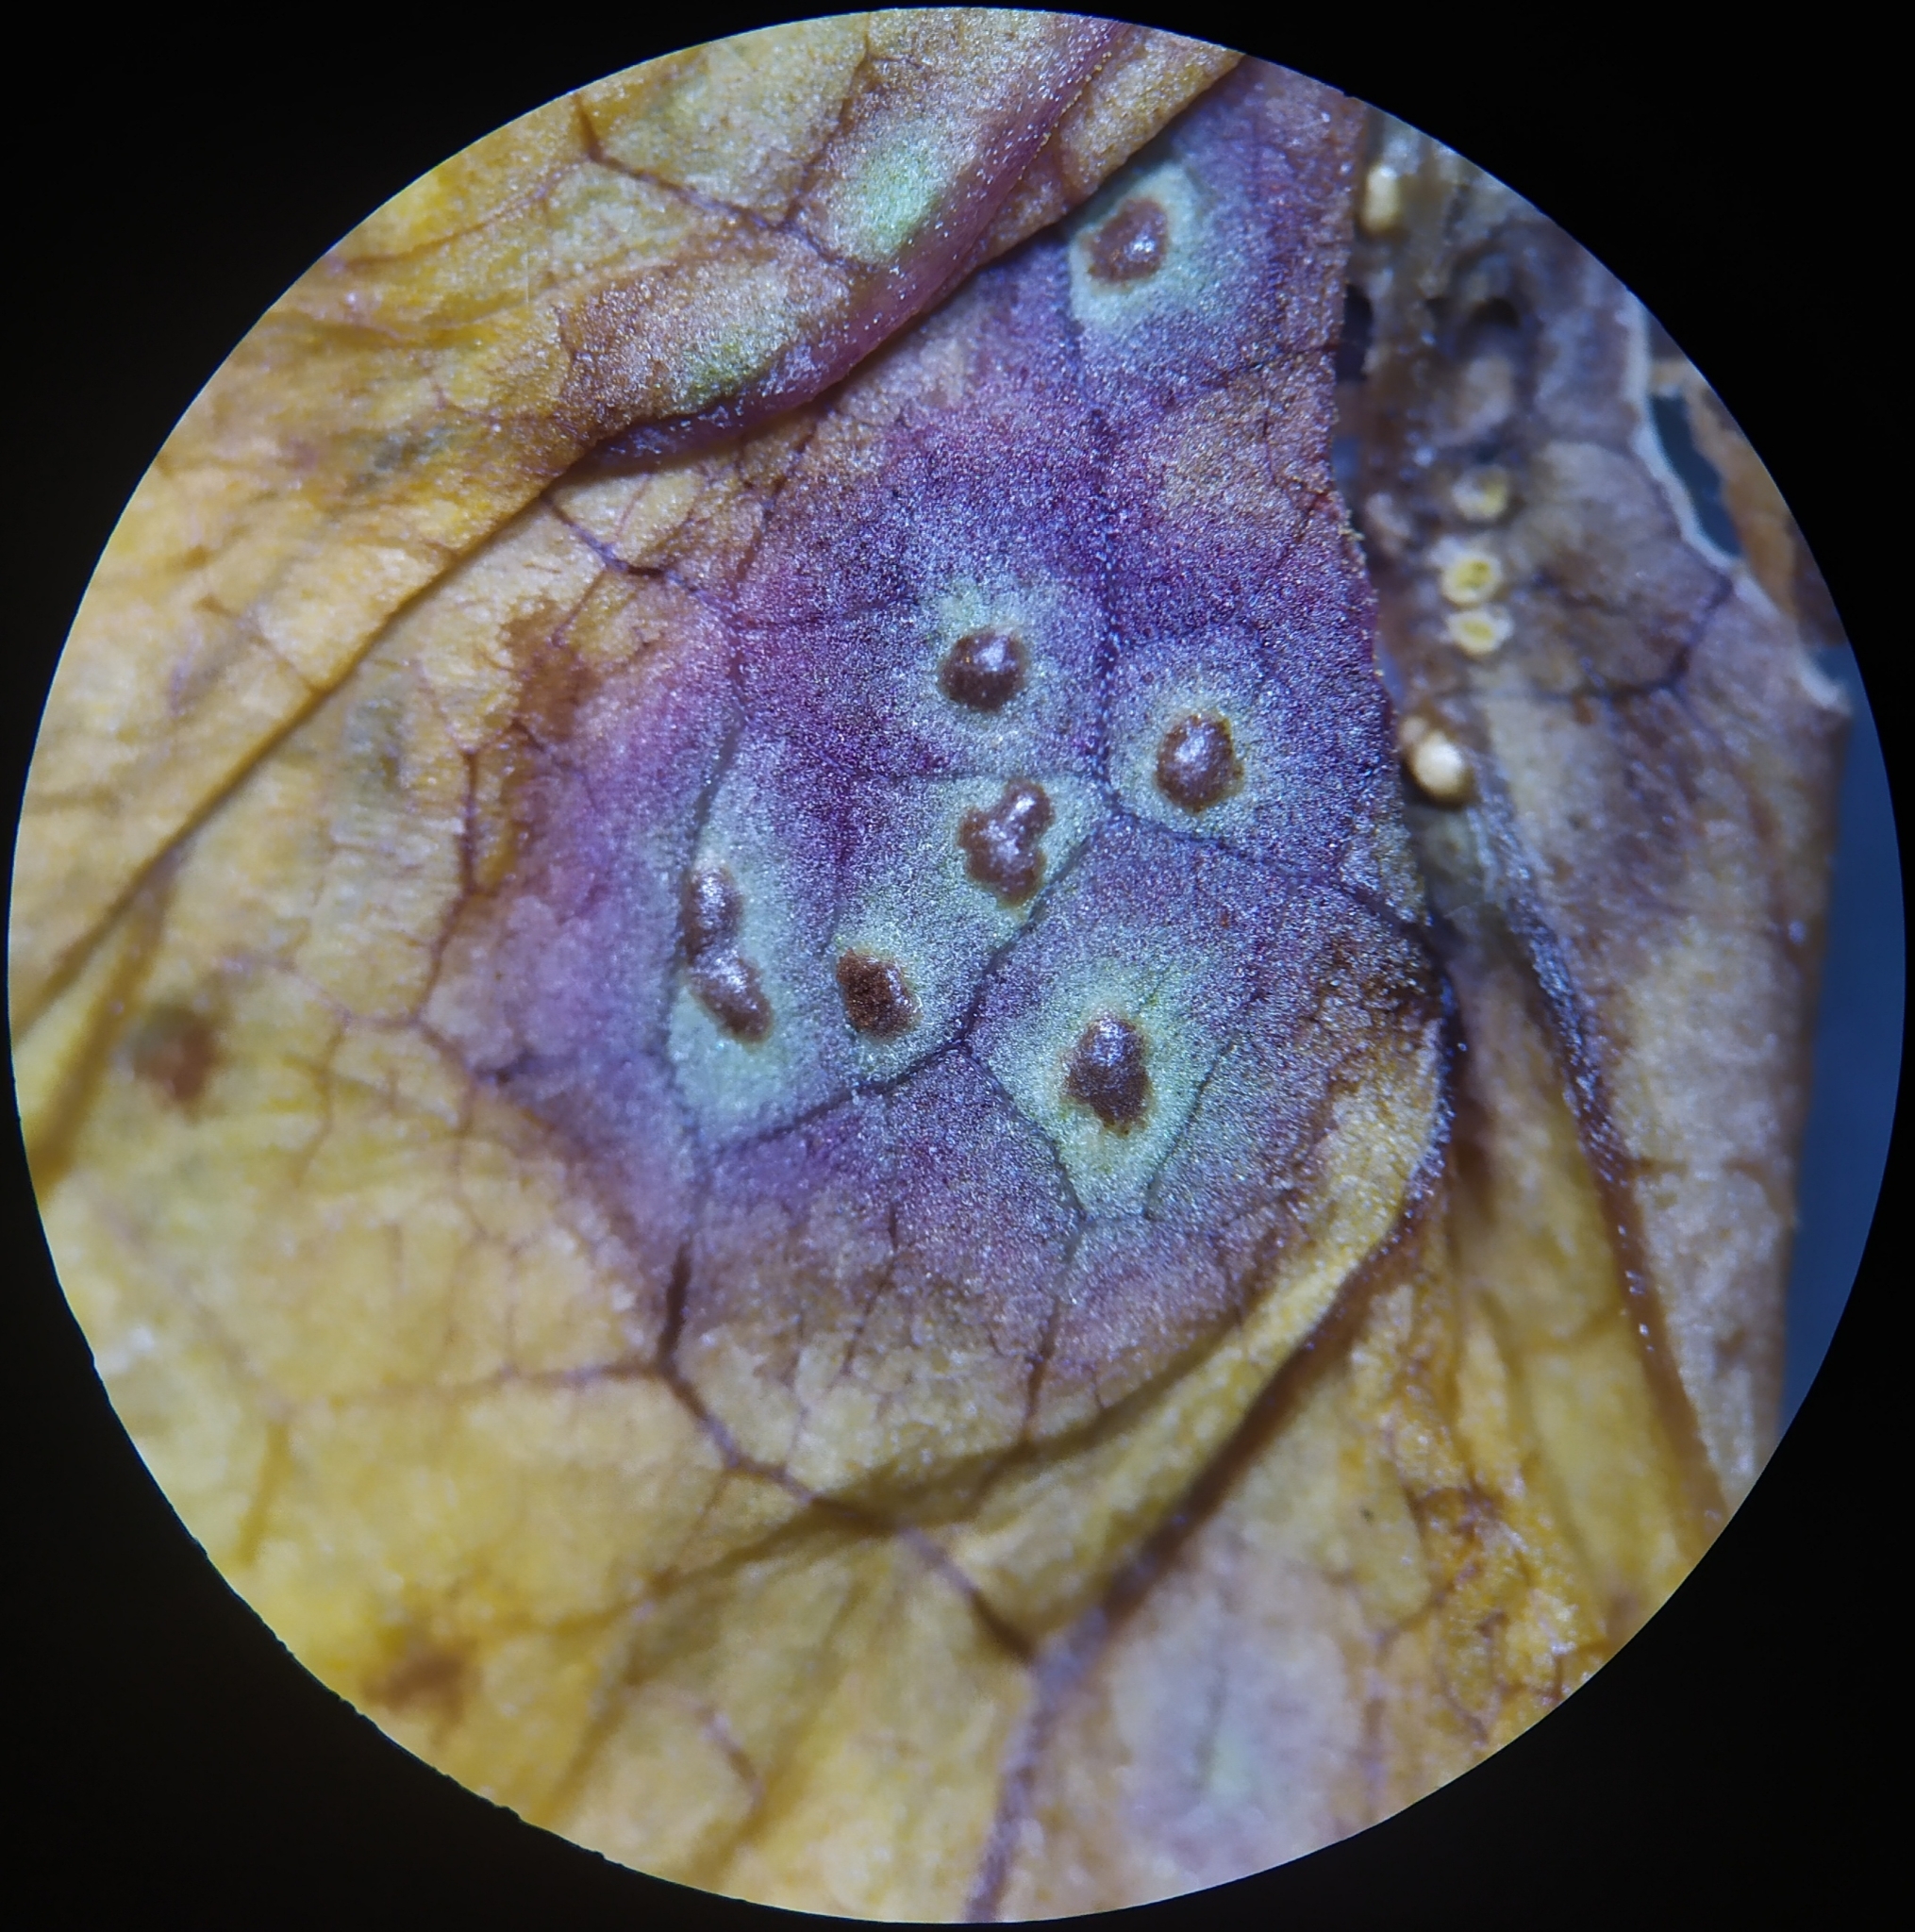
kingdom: Fungi
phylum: Basidiomycota
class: Pucciniomycetes
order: Pucciniales
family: Pucciniaceae
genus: Puccinia
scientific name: Puccinia convolvuli
